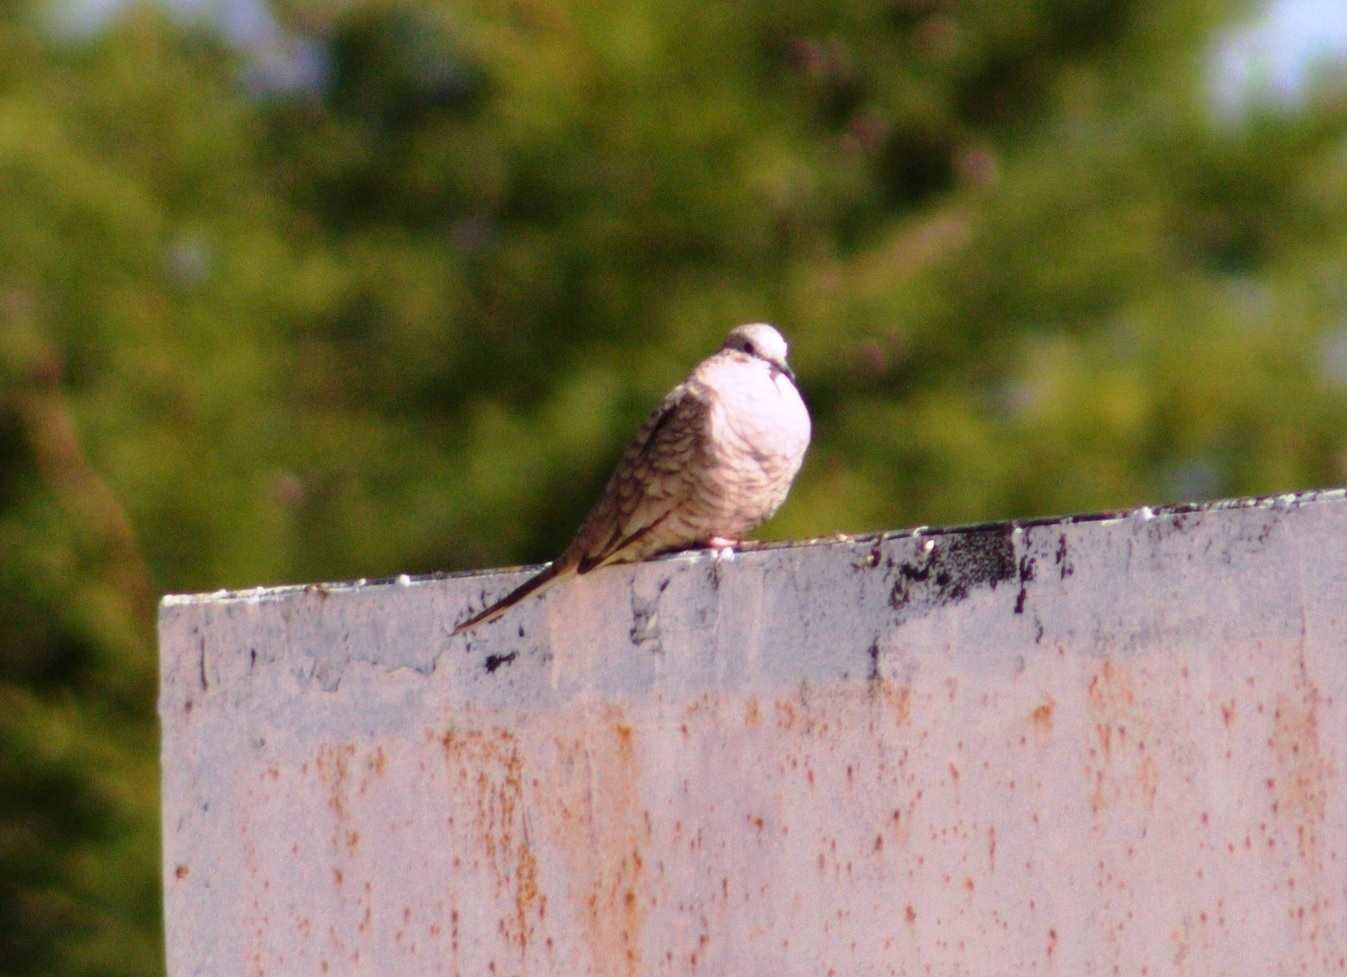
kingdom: Animalia
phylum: Chordata
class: Aves
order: Columbiformes
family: Columbidae
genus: Columbina
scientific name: Columbina inca
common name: Inca dove
